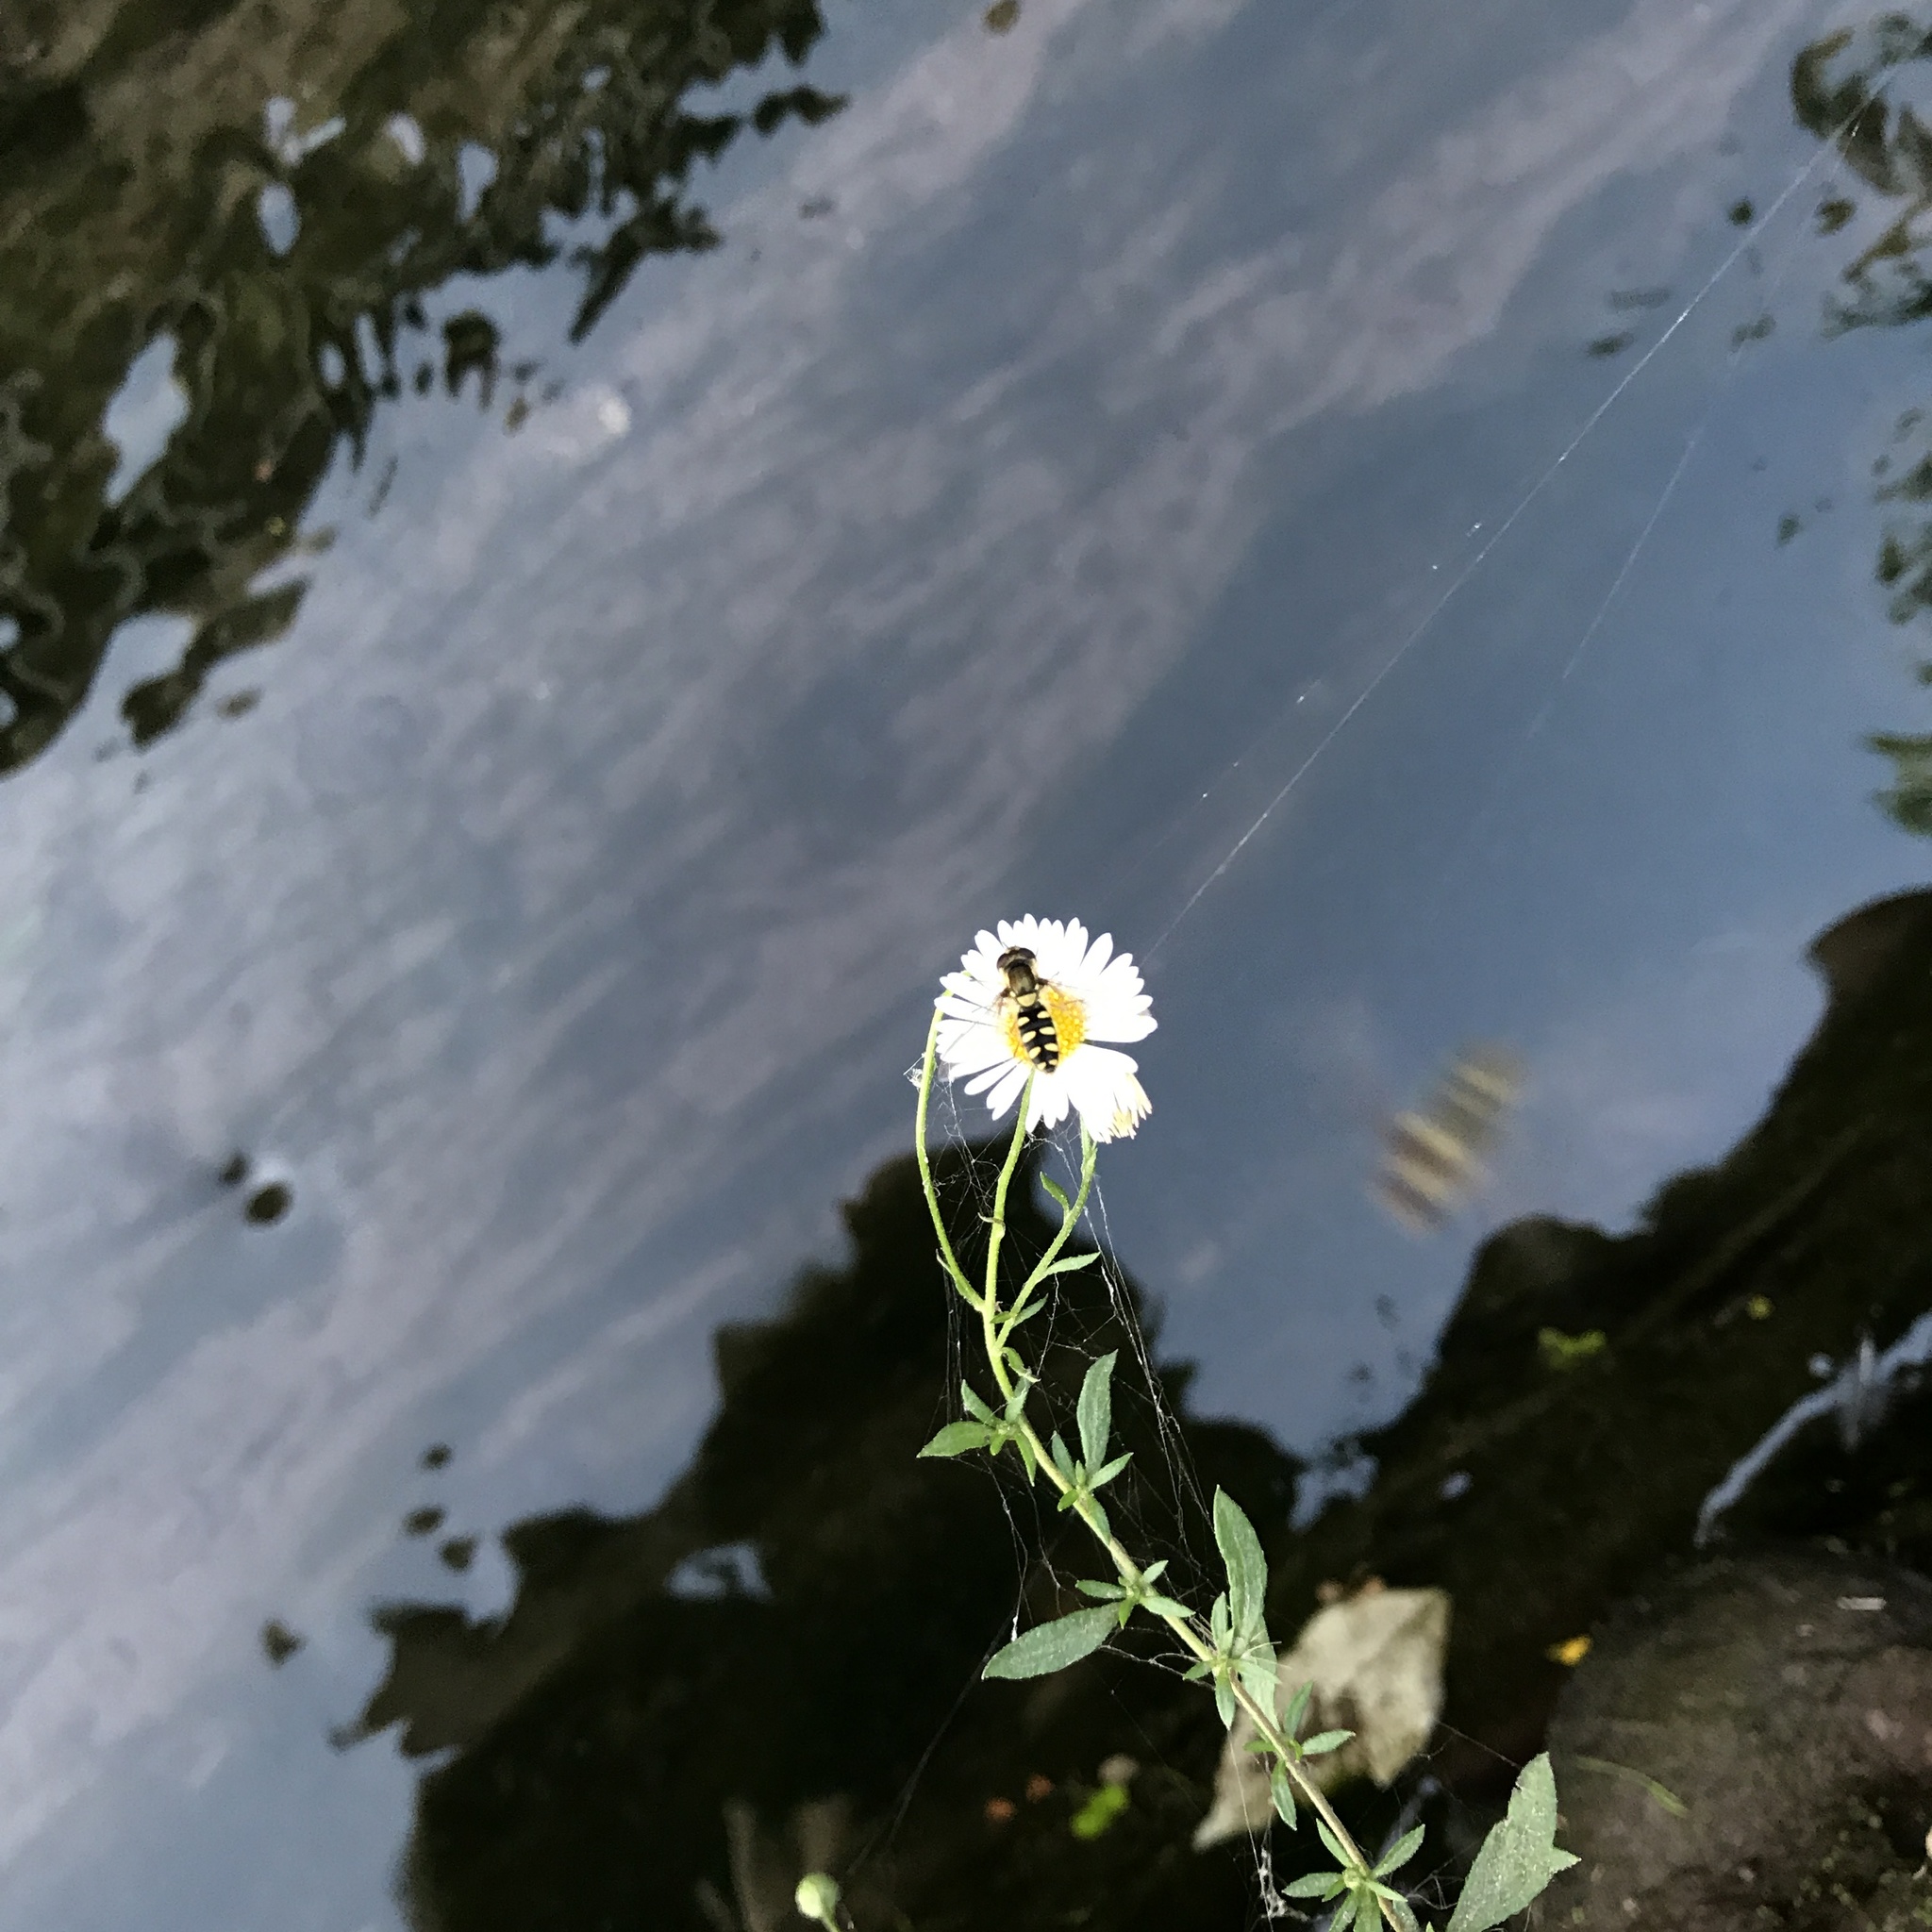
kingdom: Animalia
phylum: Arthropoda
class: Insecta
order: Diptera
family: Syrphidae
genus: Fazia
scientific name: Fazia macquarti
